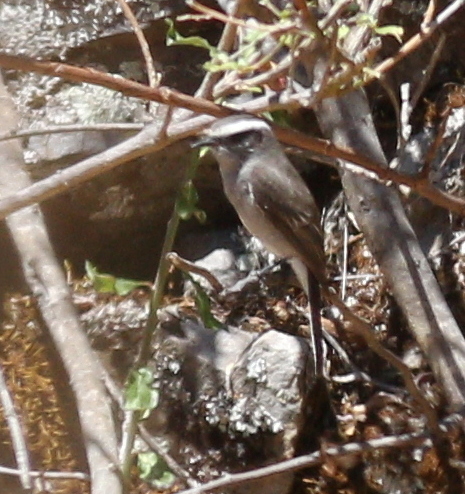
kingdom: Animalia
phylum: Chordata
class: Aves
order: Passeriformes
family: Tyrannidae
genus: Ochthoeca
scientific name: Ochthoeca leucophrys
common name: White-browed chat-tyrant
